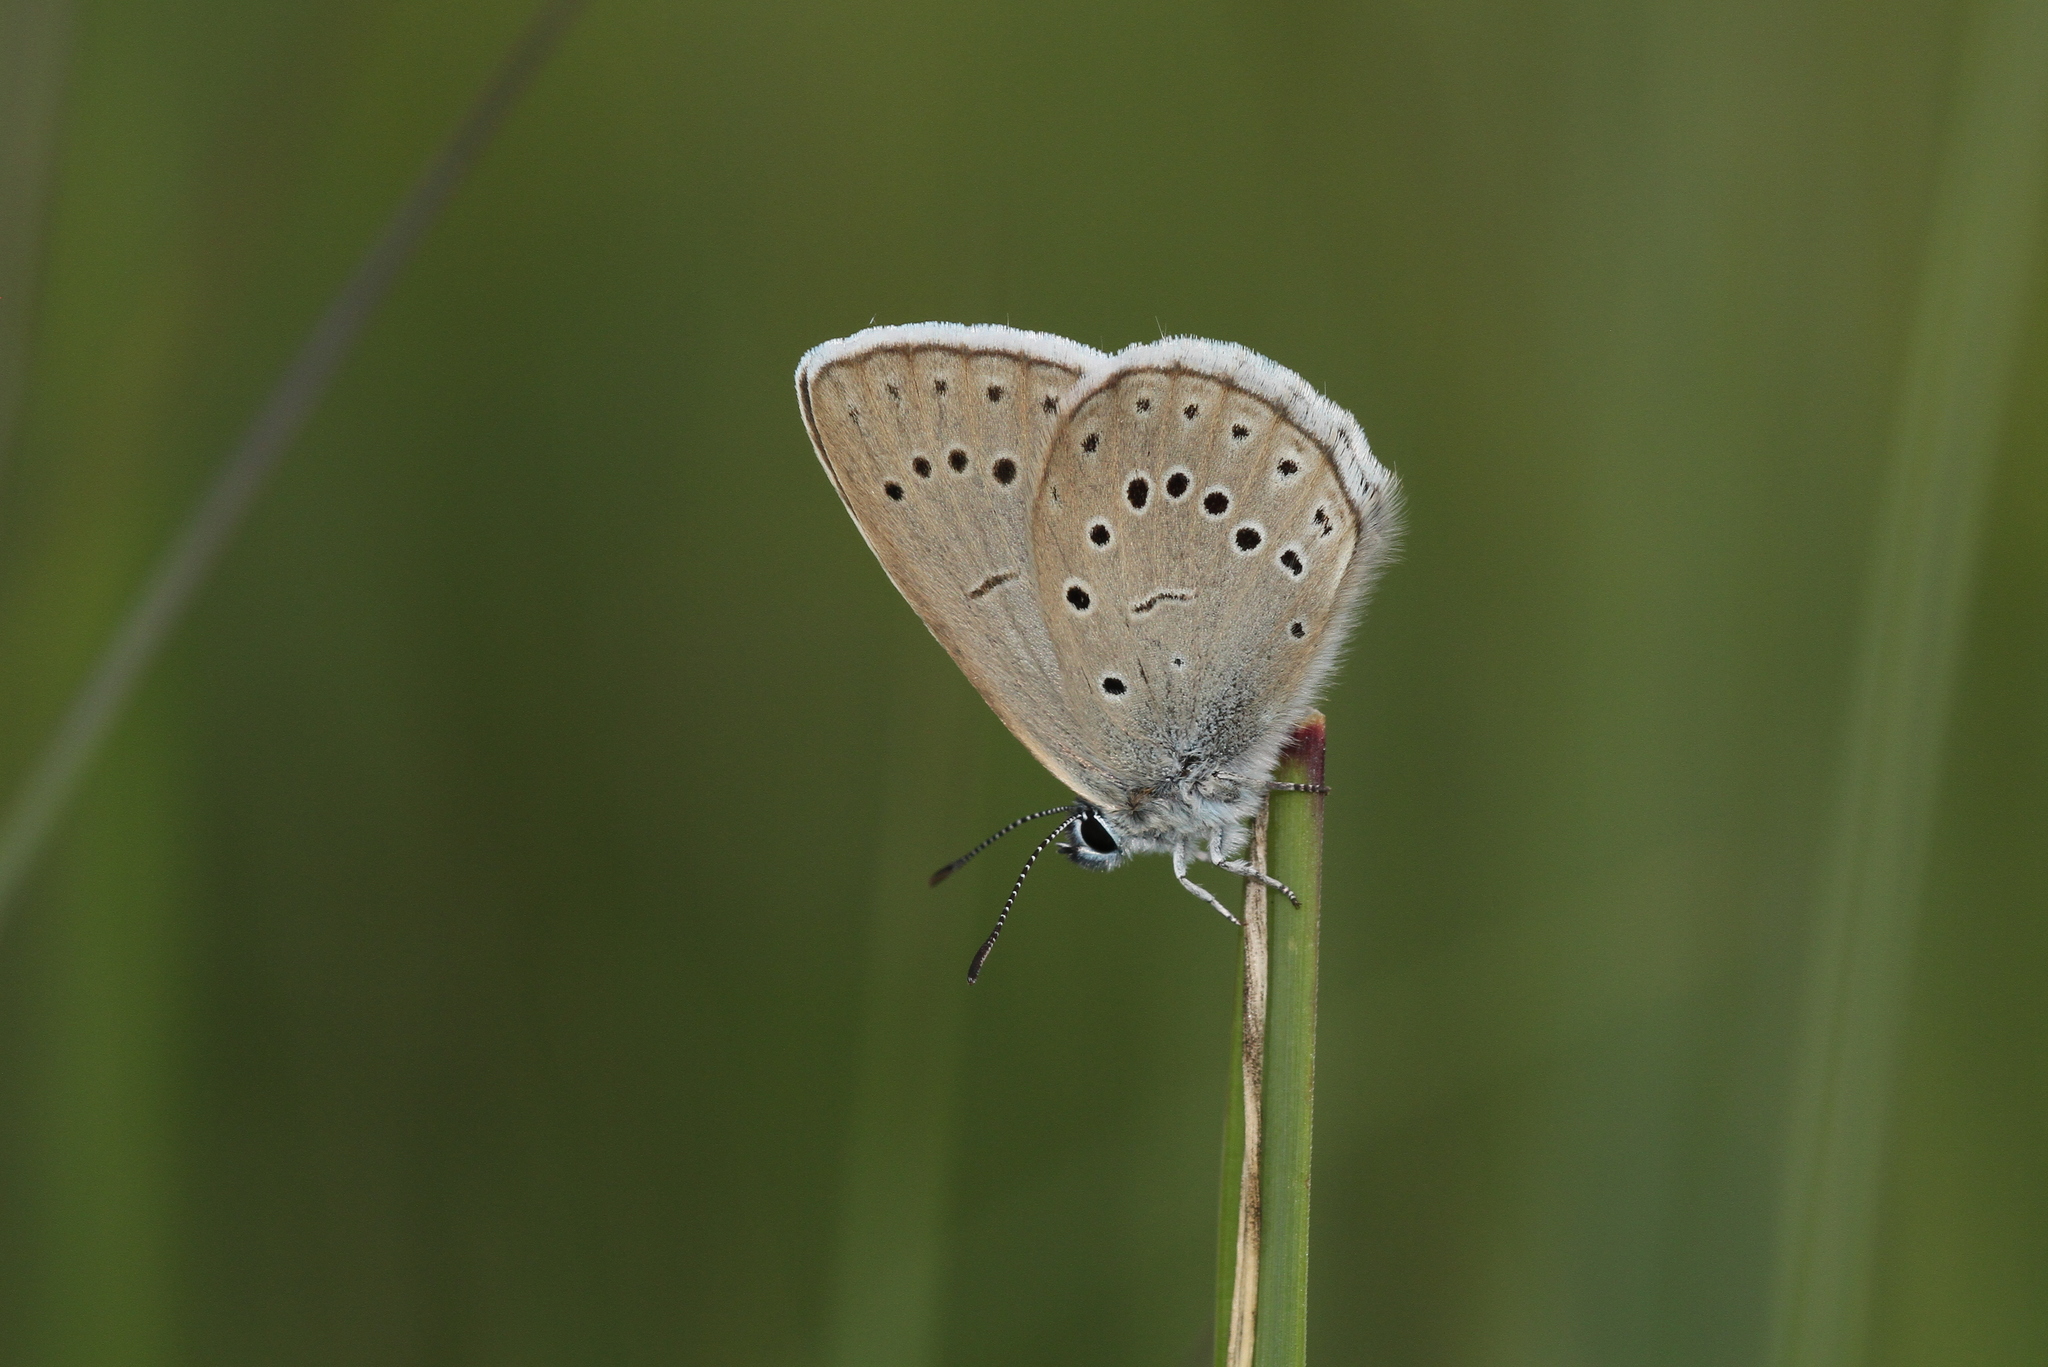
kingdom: Animalia
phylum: Arthropoda
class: Insecta
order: Lepidoptera
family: Lycaenidae
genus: Phengaris
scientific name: Phengaris teleius
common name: Scarce large blue
